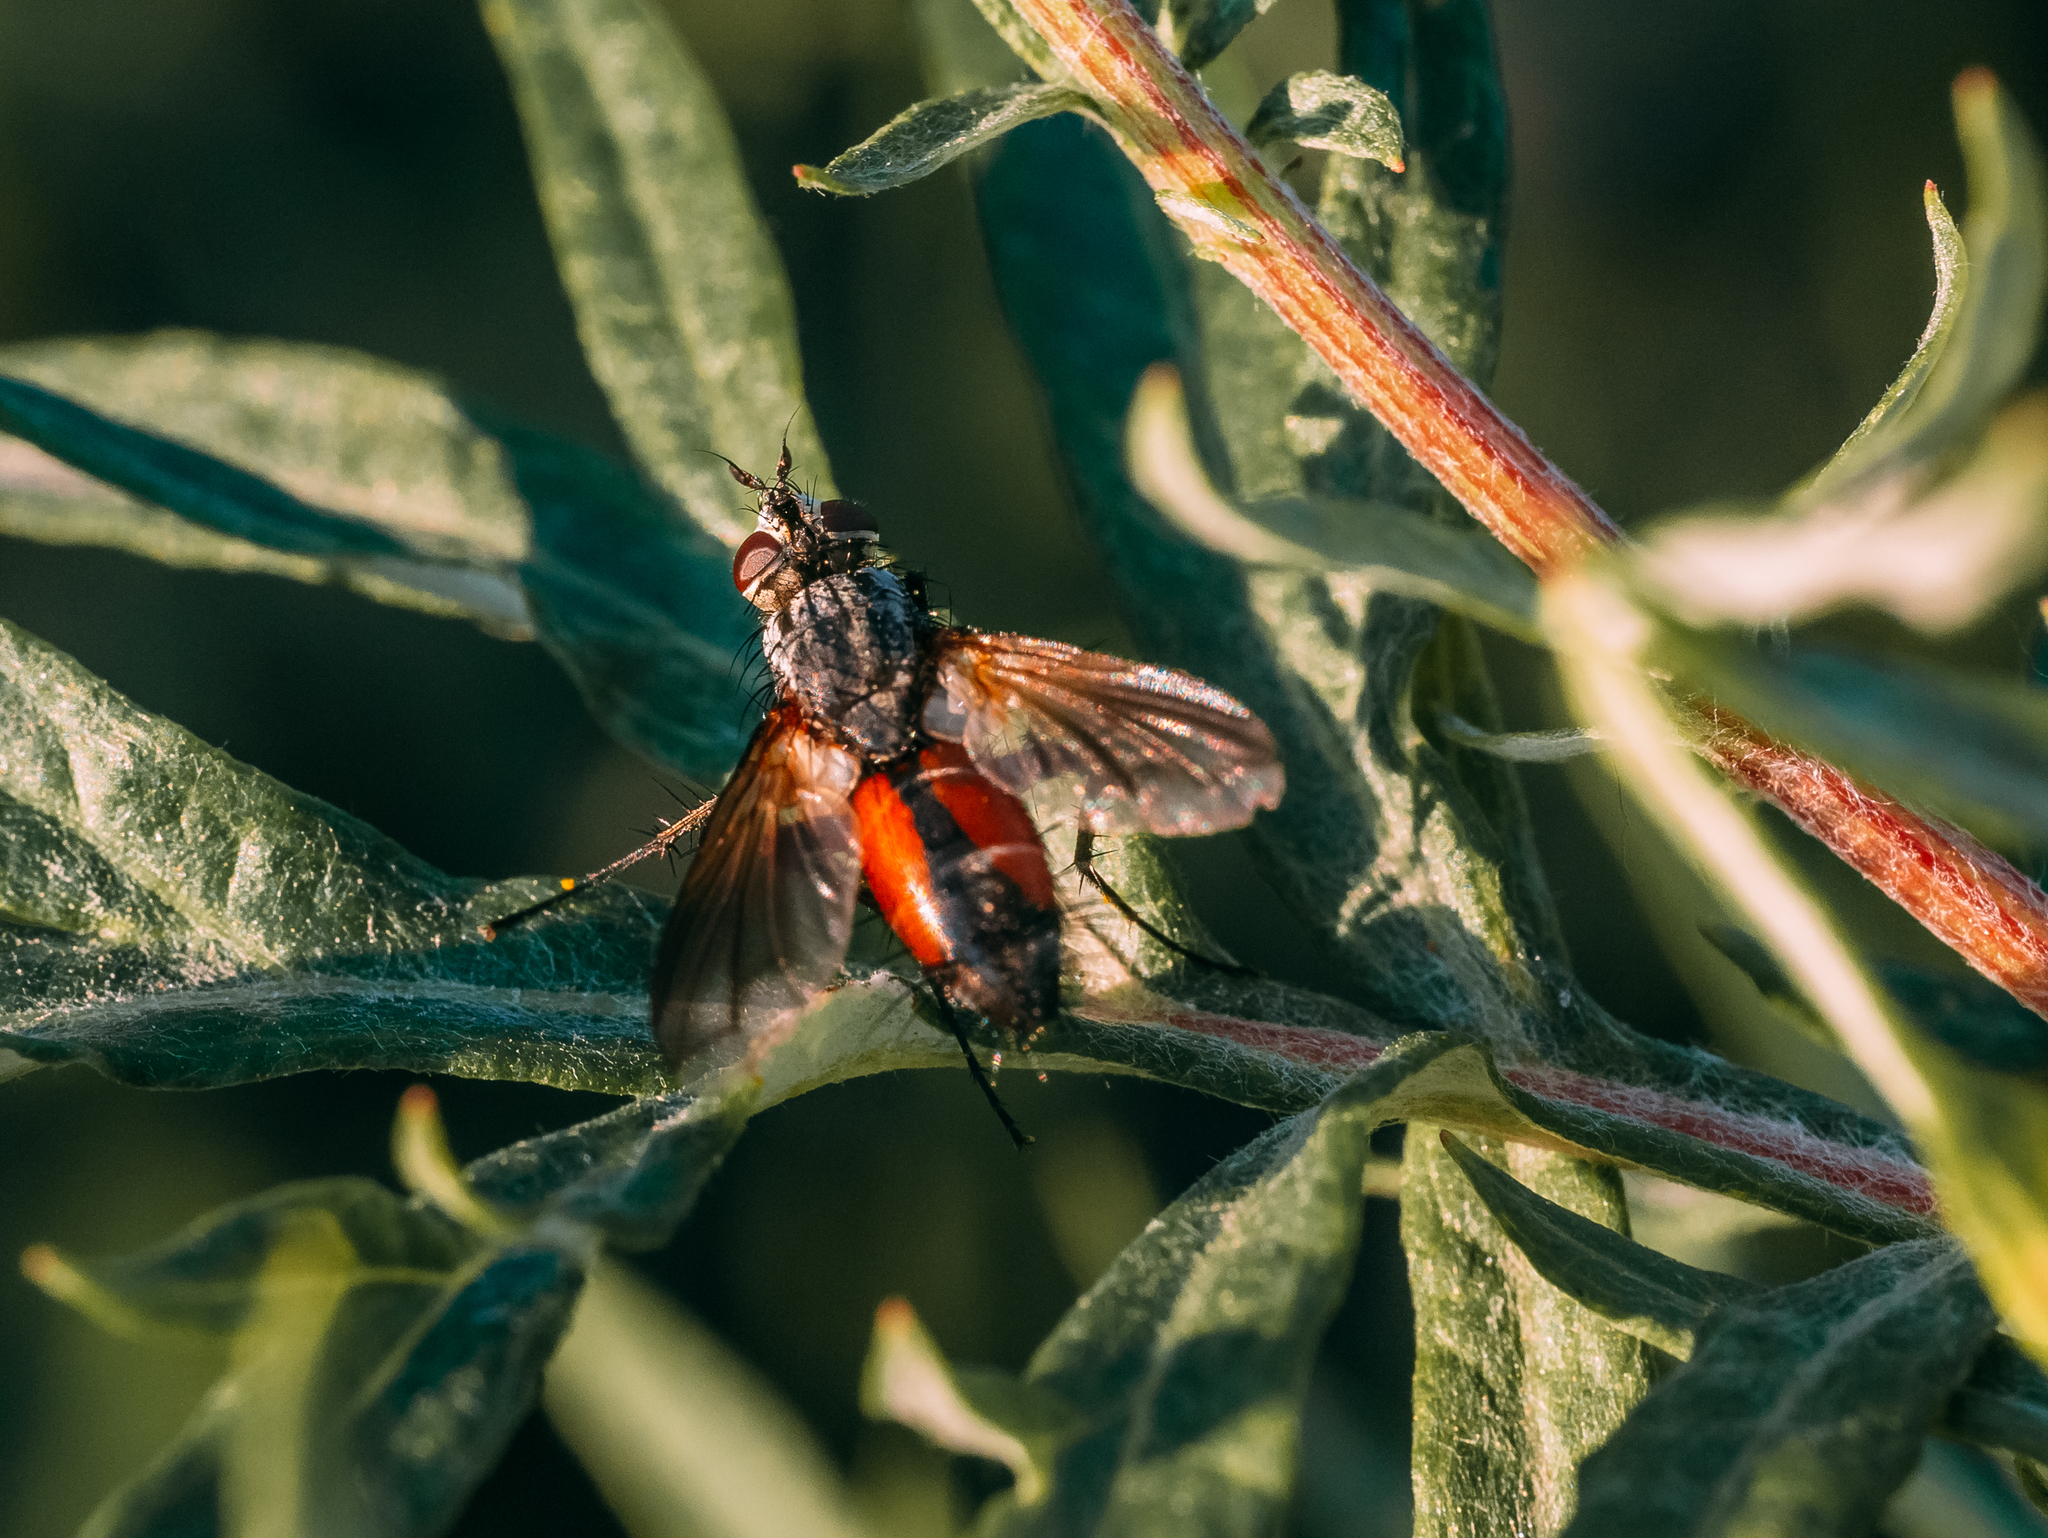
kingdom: Animalia
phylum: Arthropoda
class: Insecta
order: Diptera
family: Tachinidae
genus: Eriothrix
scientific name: Eriothrix rufomaculatus
